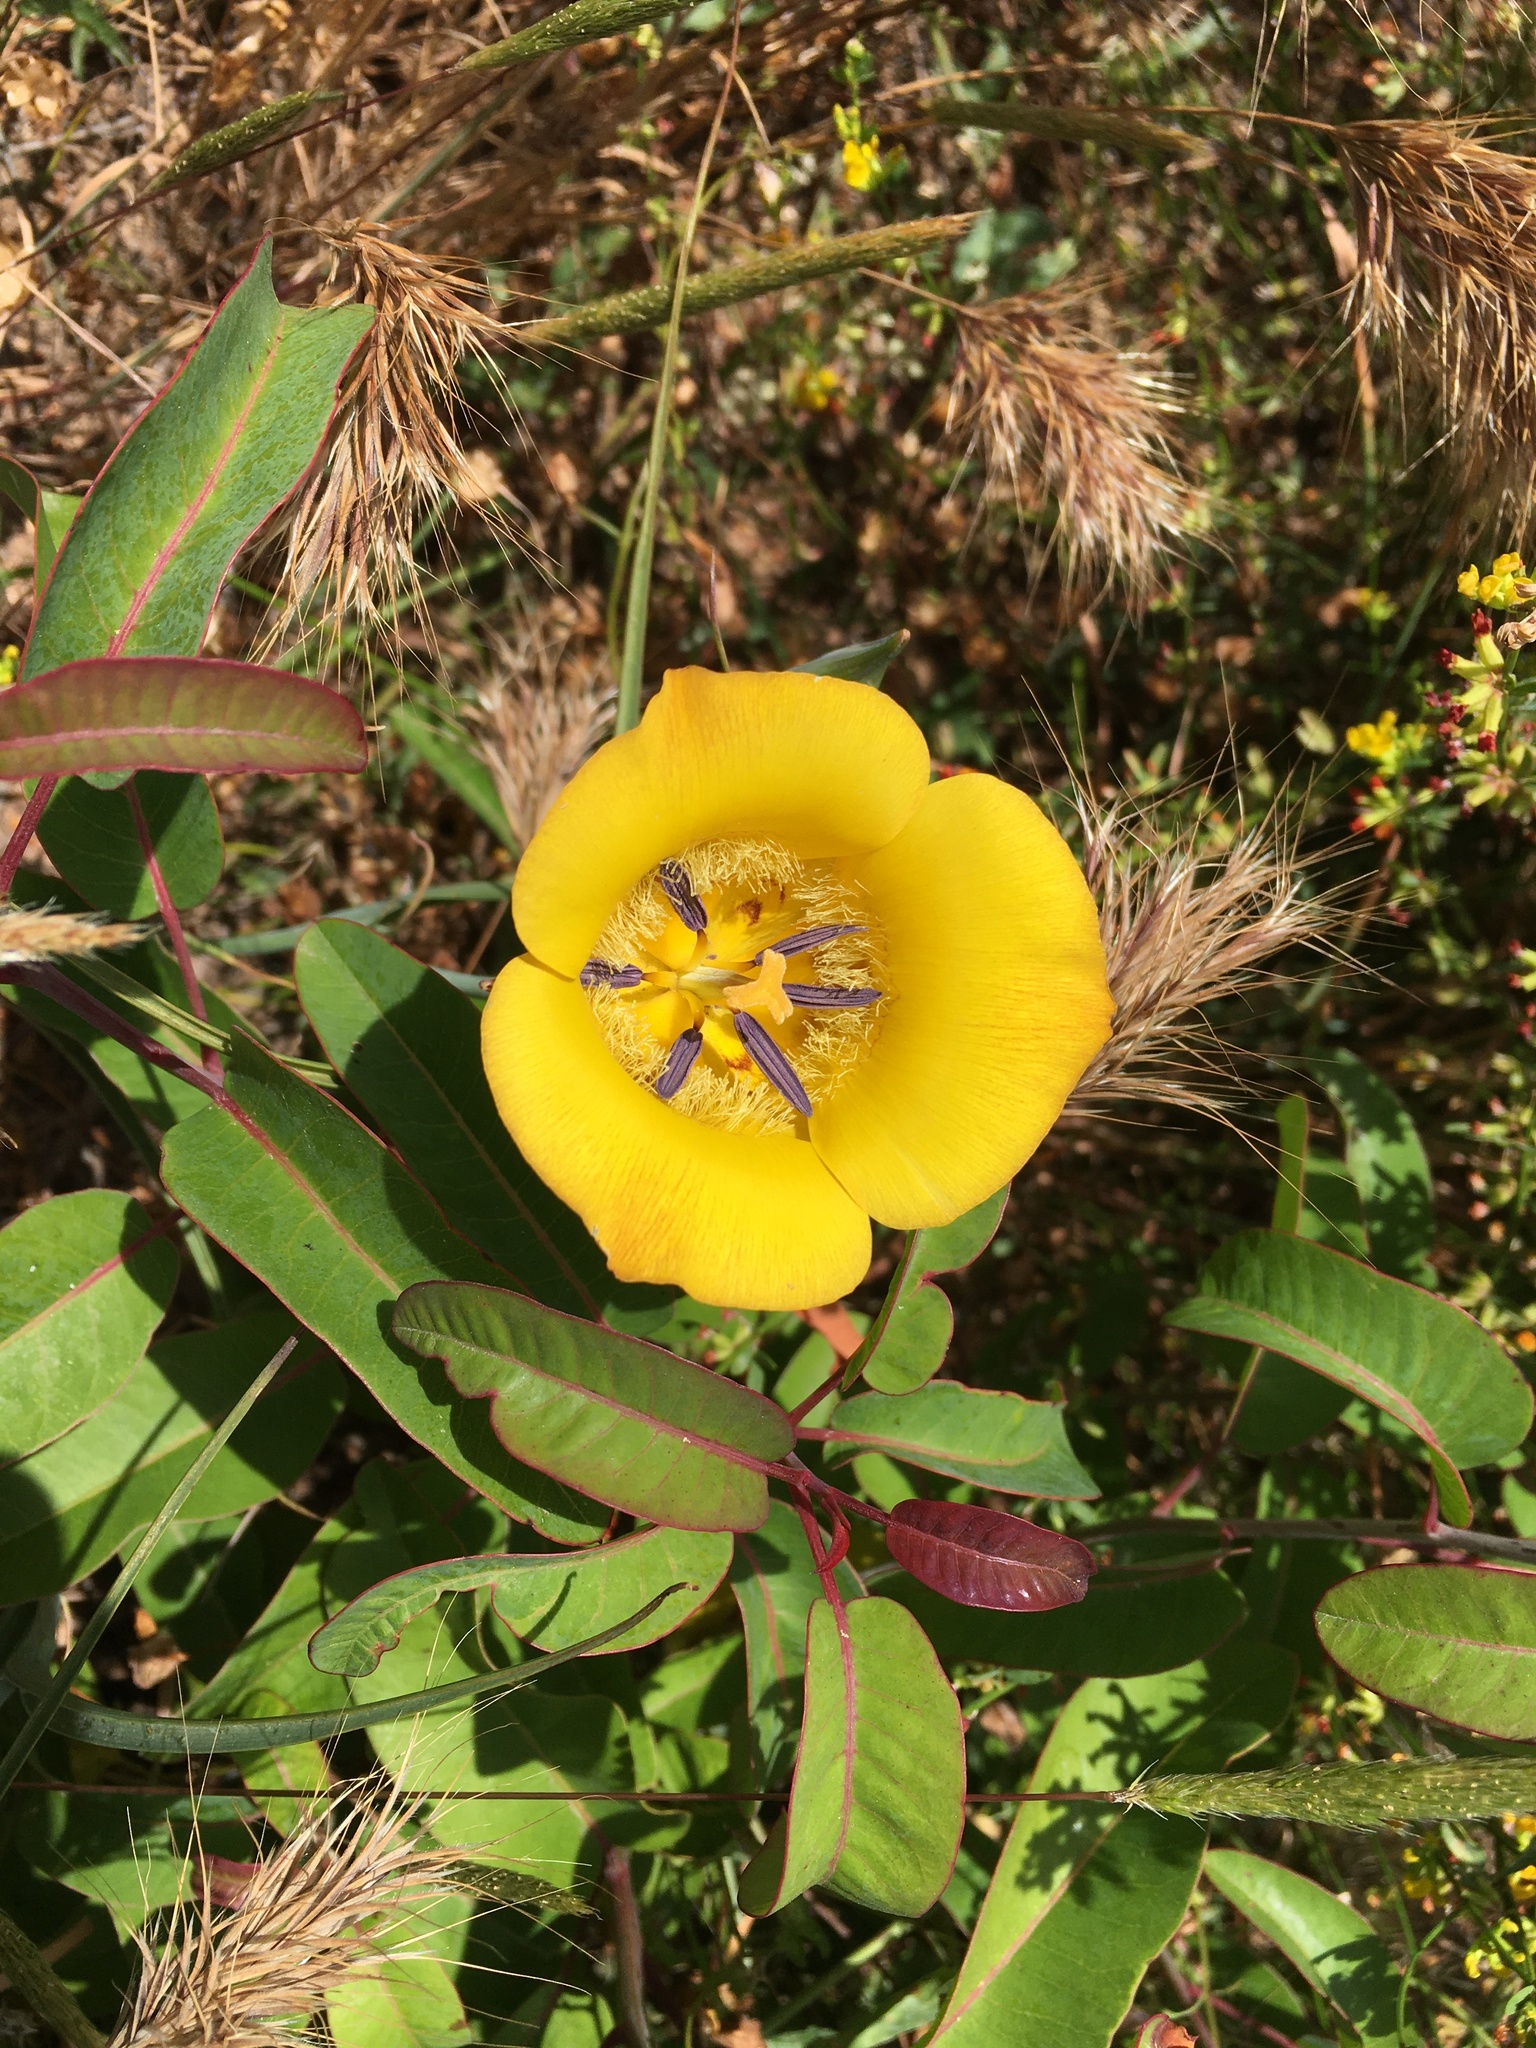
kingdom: Plantae
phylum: Tracheophyta
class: Liliopsida
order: Liliales
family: Liliaceae
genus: Calochortus
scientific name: Calochortus clavatus
